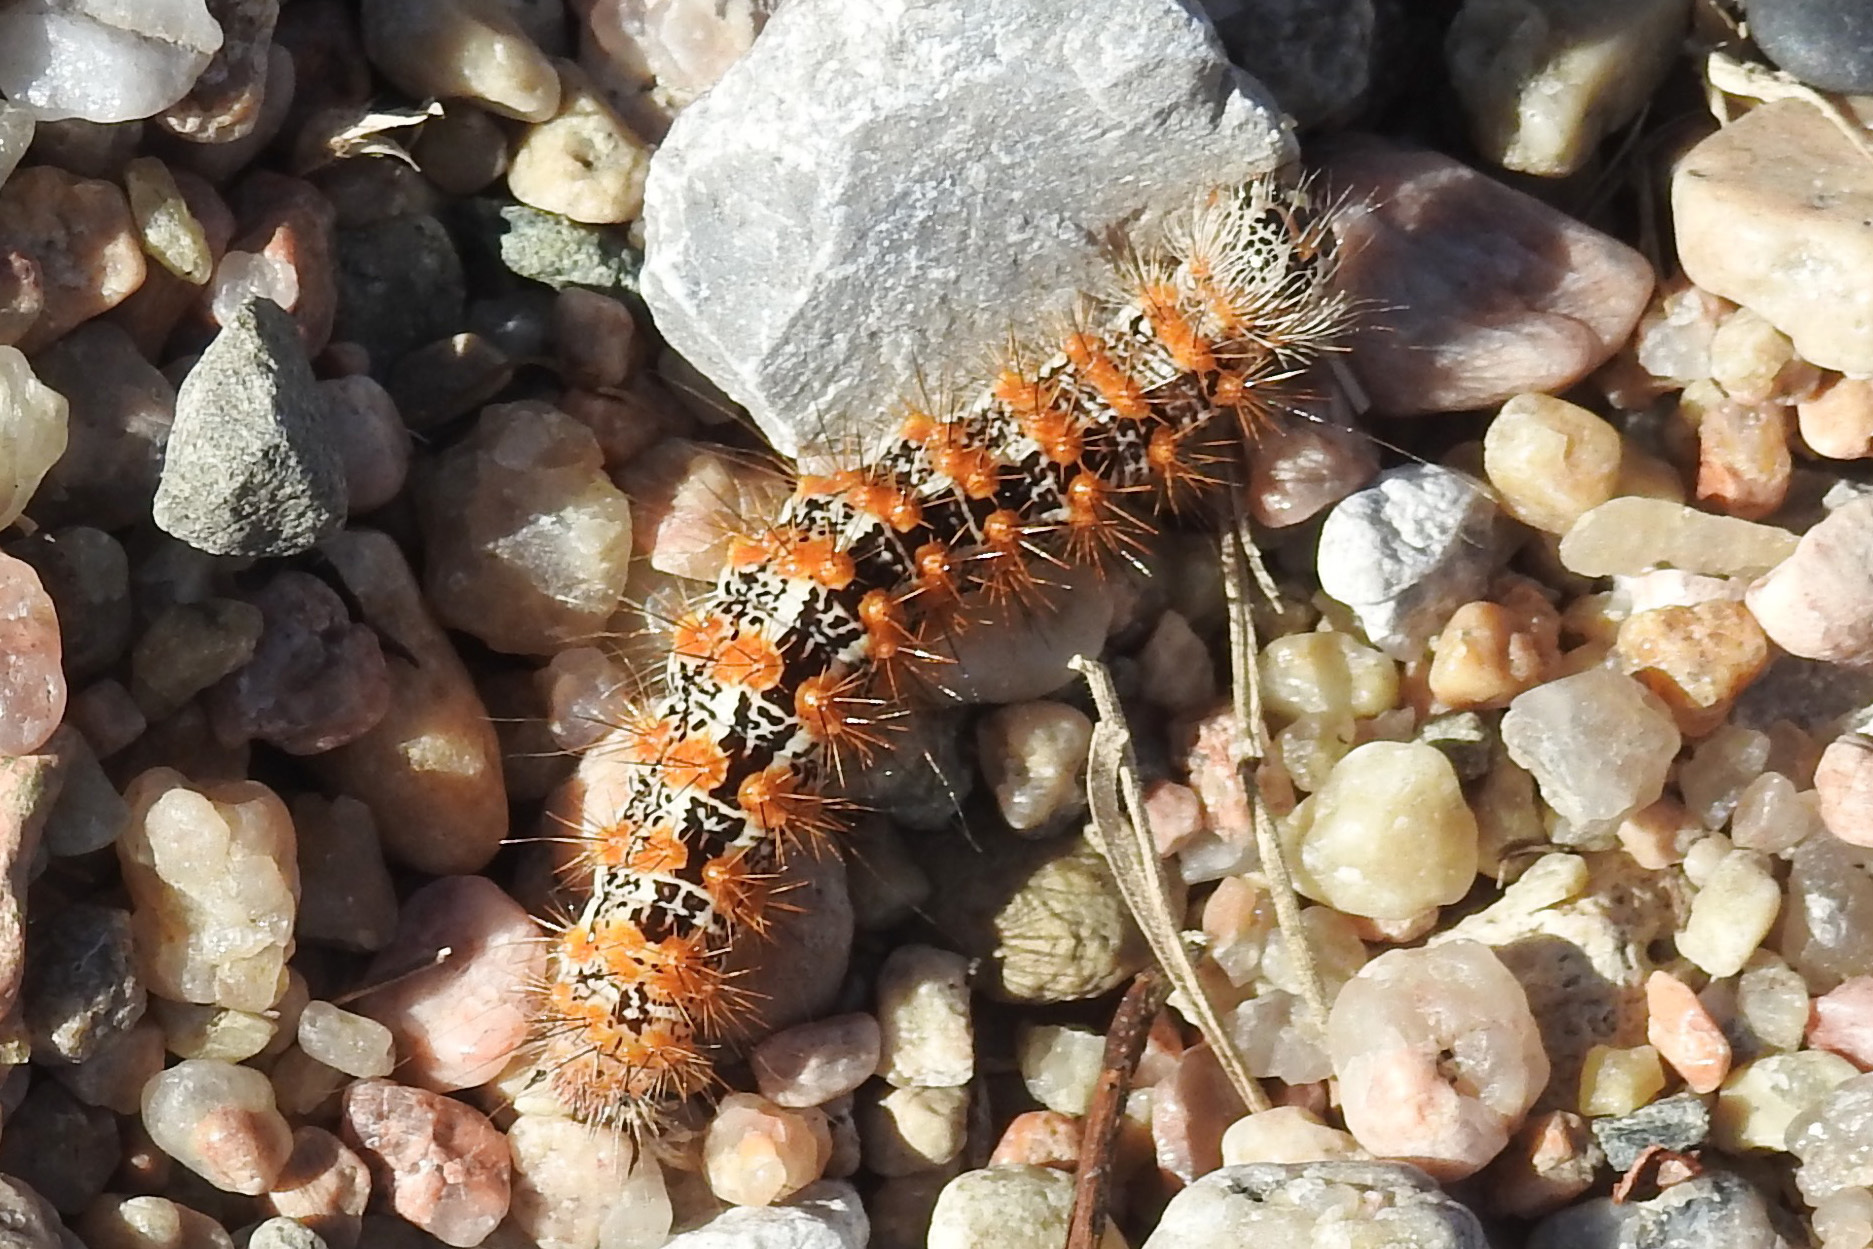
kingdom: Animalia
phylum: Arthropoda
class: Insecta
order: Lepidoptera
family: Noctuidae
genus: Acronicta
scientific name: Acronicta insularis
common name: Henry's marsh moth
